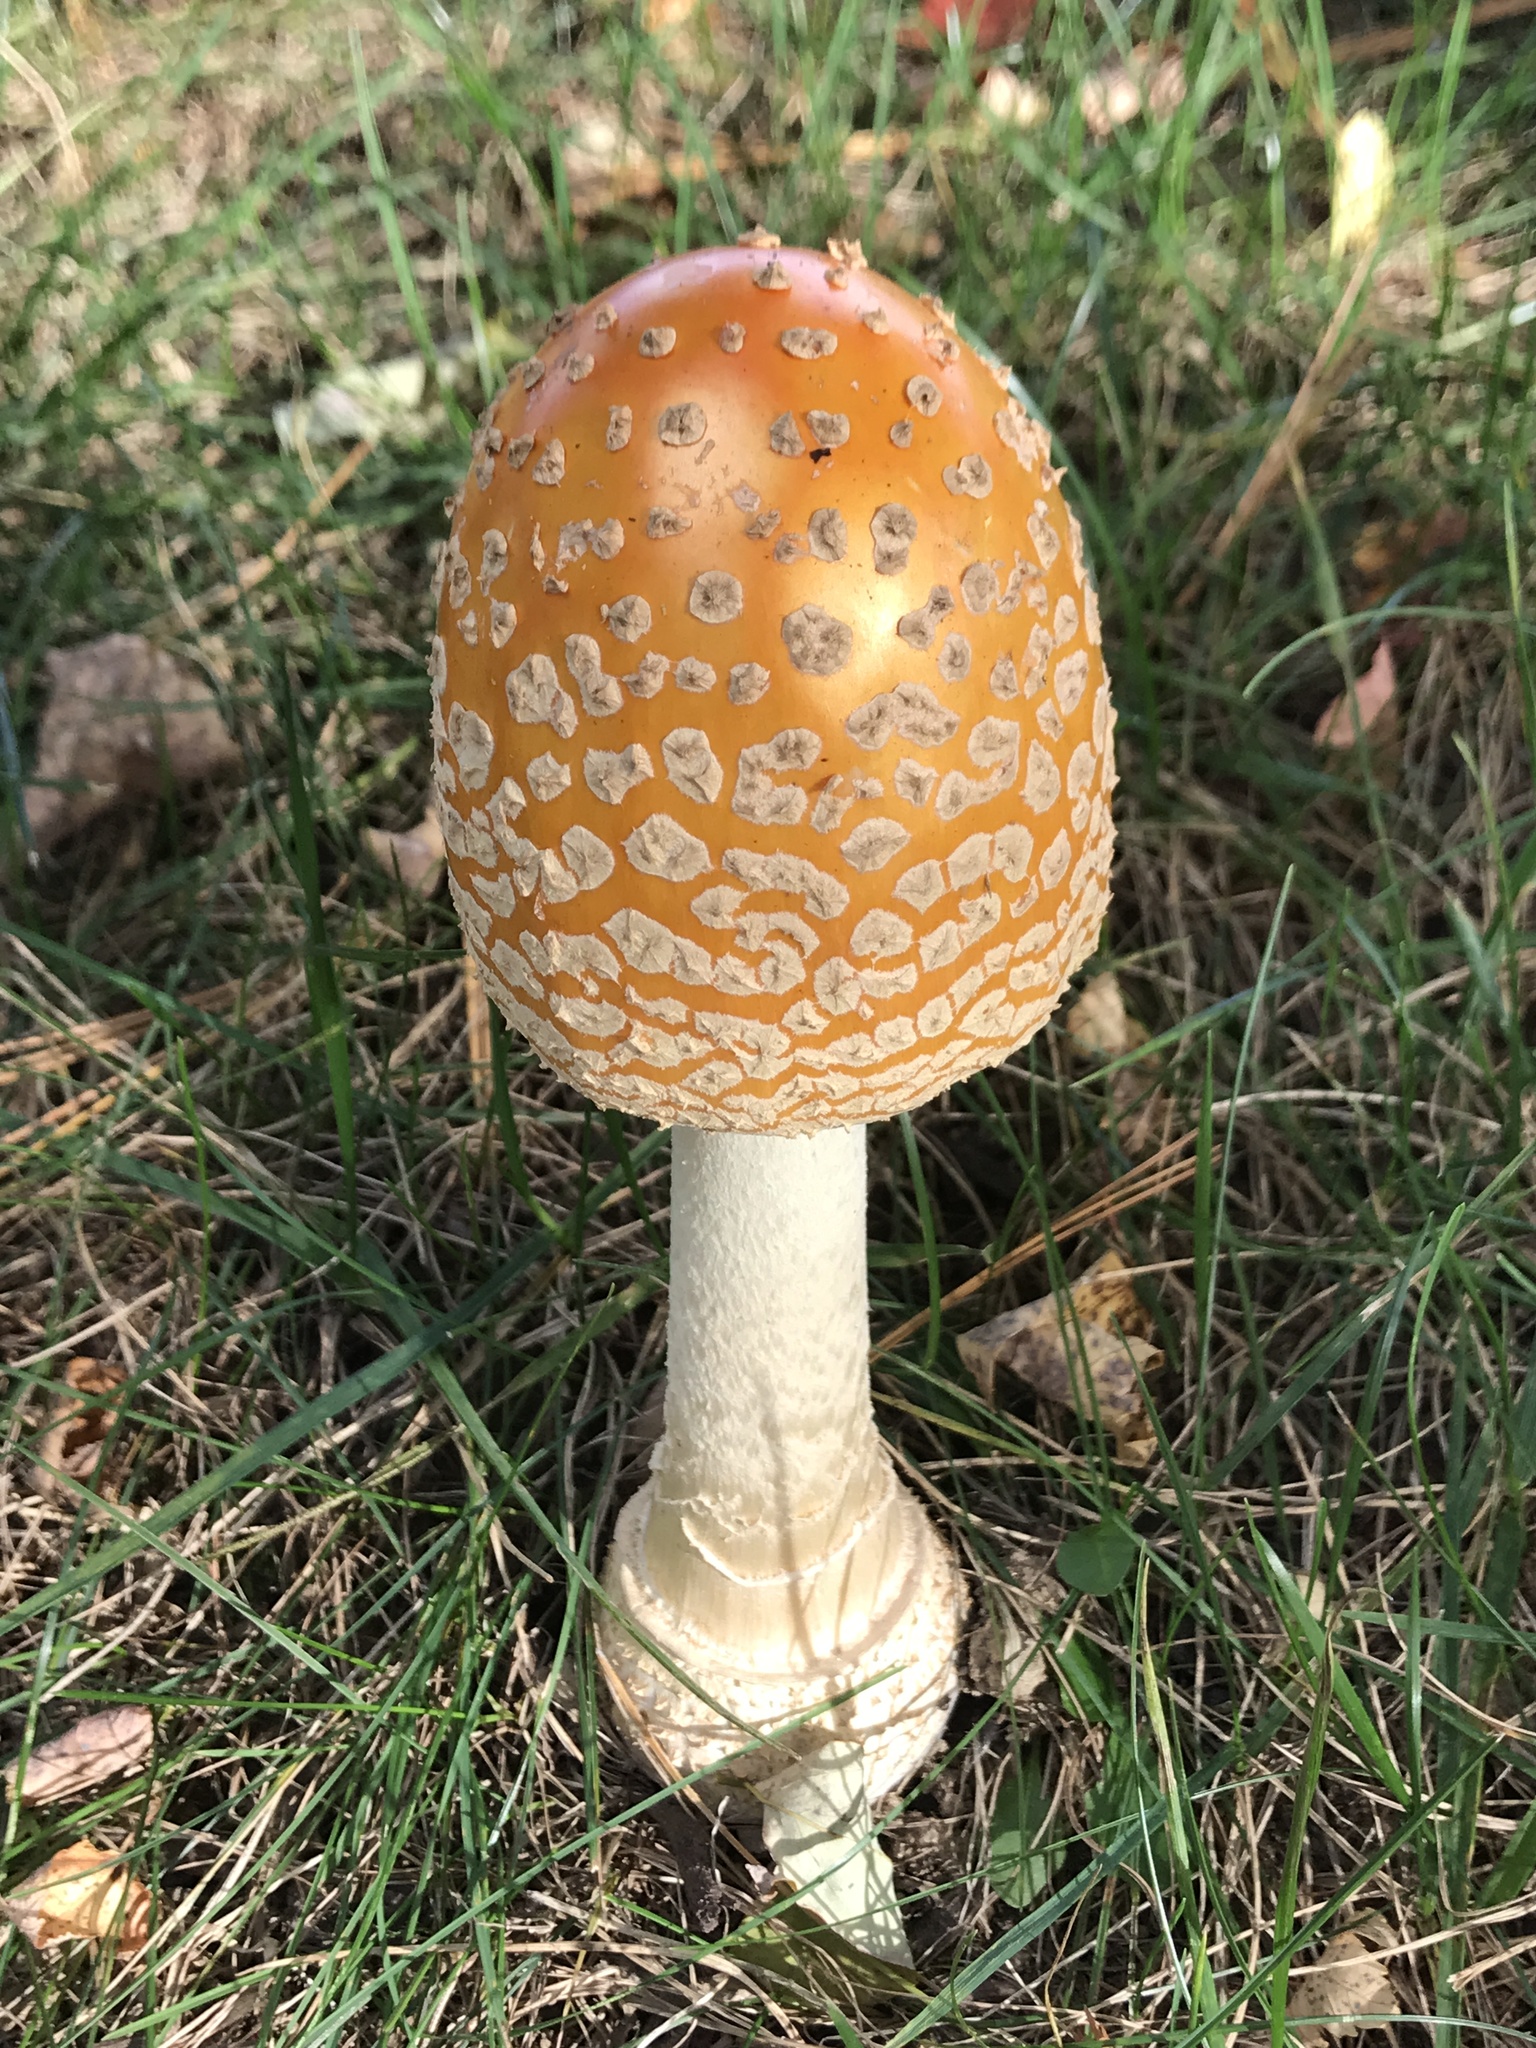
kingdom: Fungi
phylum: Basidiomycota
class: Agaricomycetes
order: Agaricales
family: Amanitaceae
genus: Amanita
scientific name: Amanita muscaria
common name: Fly agaric
